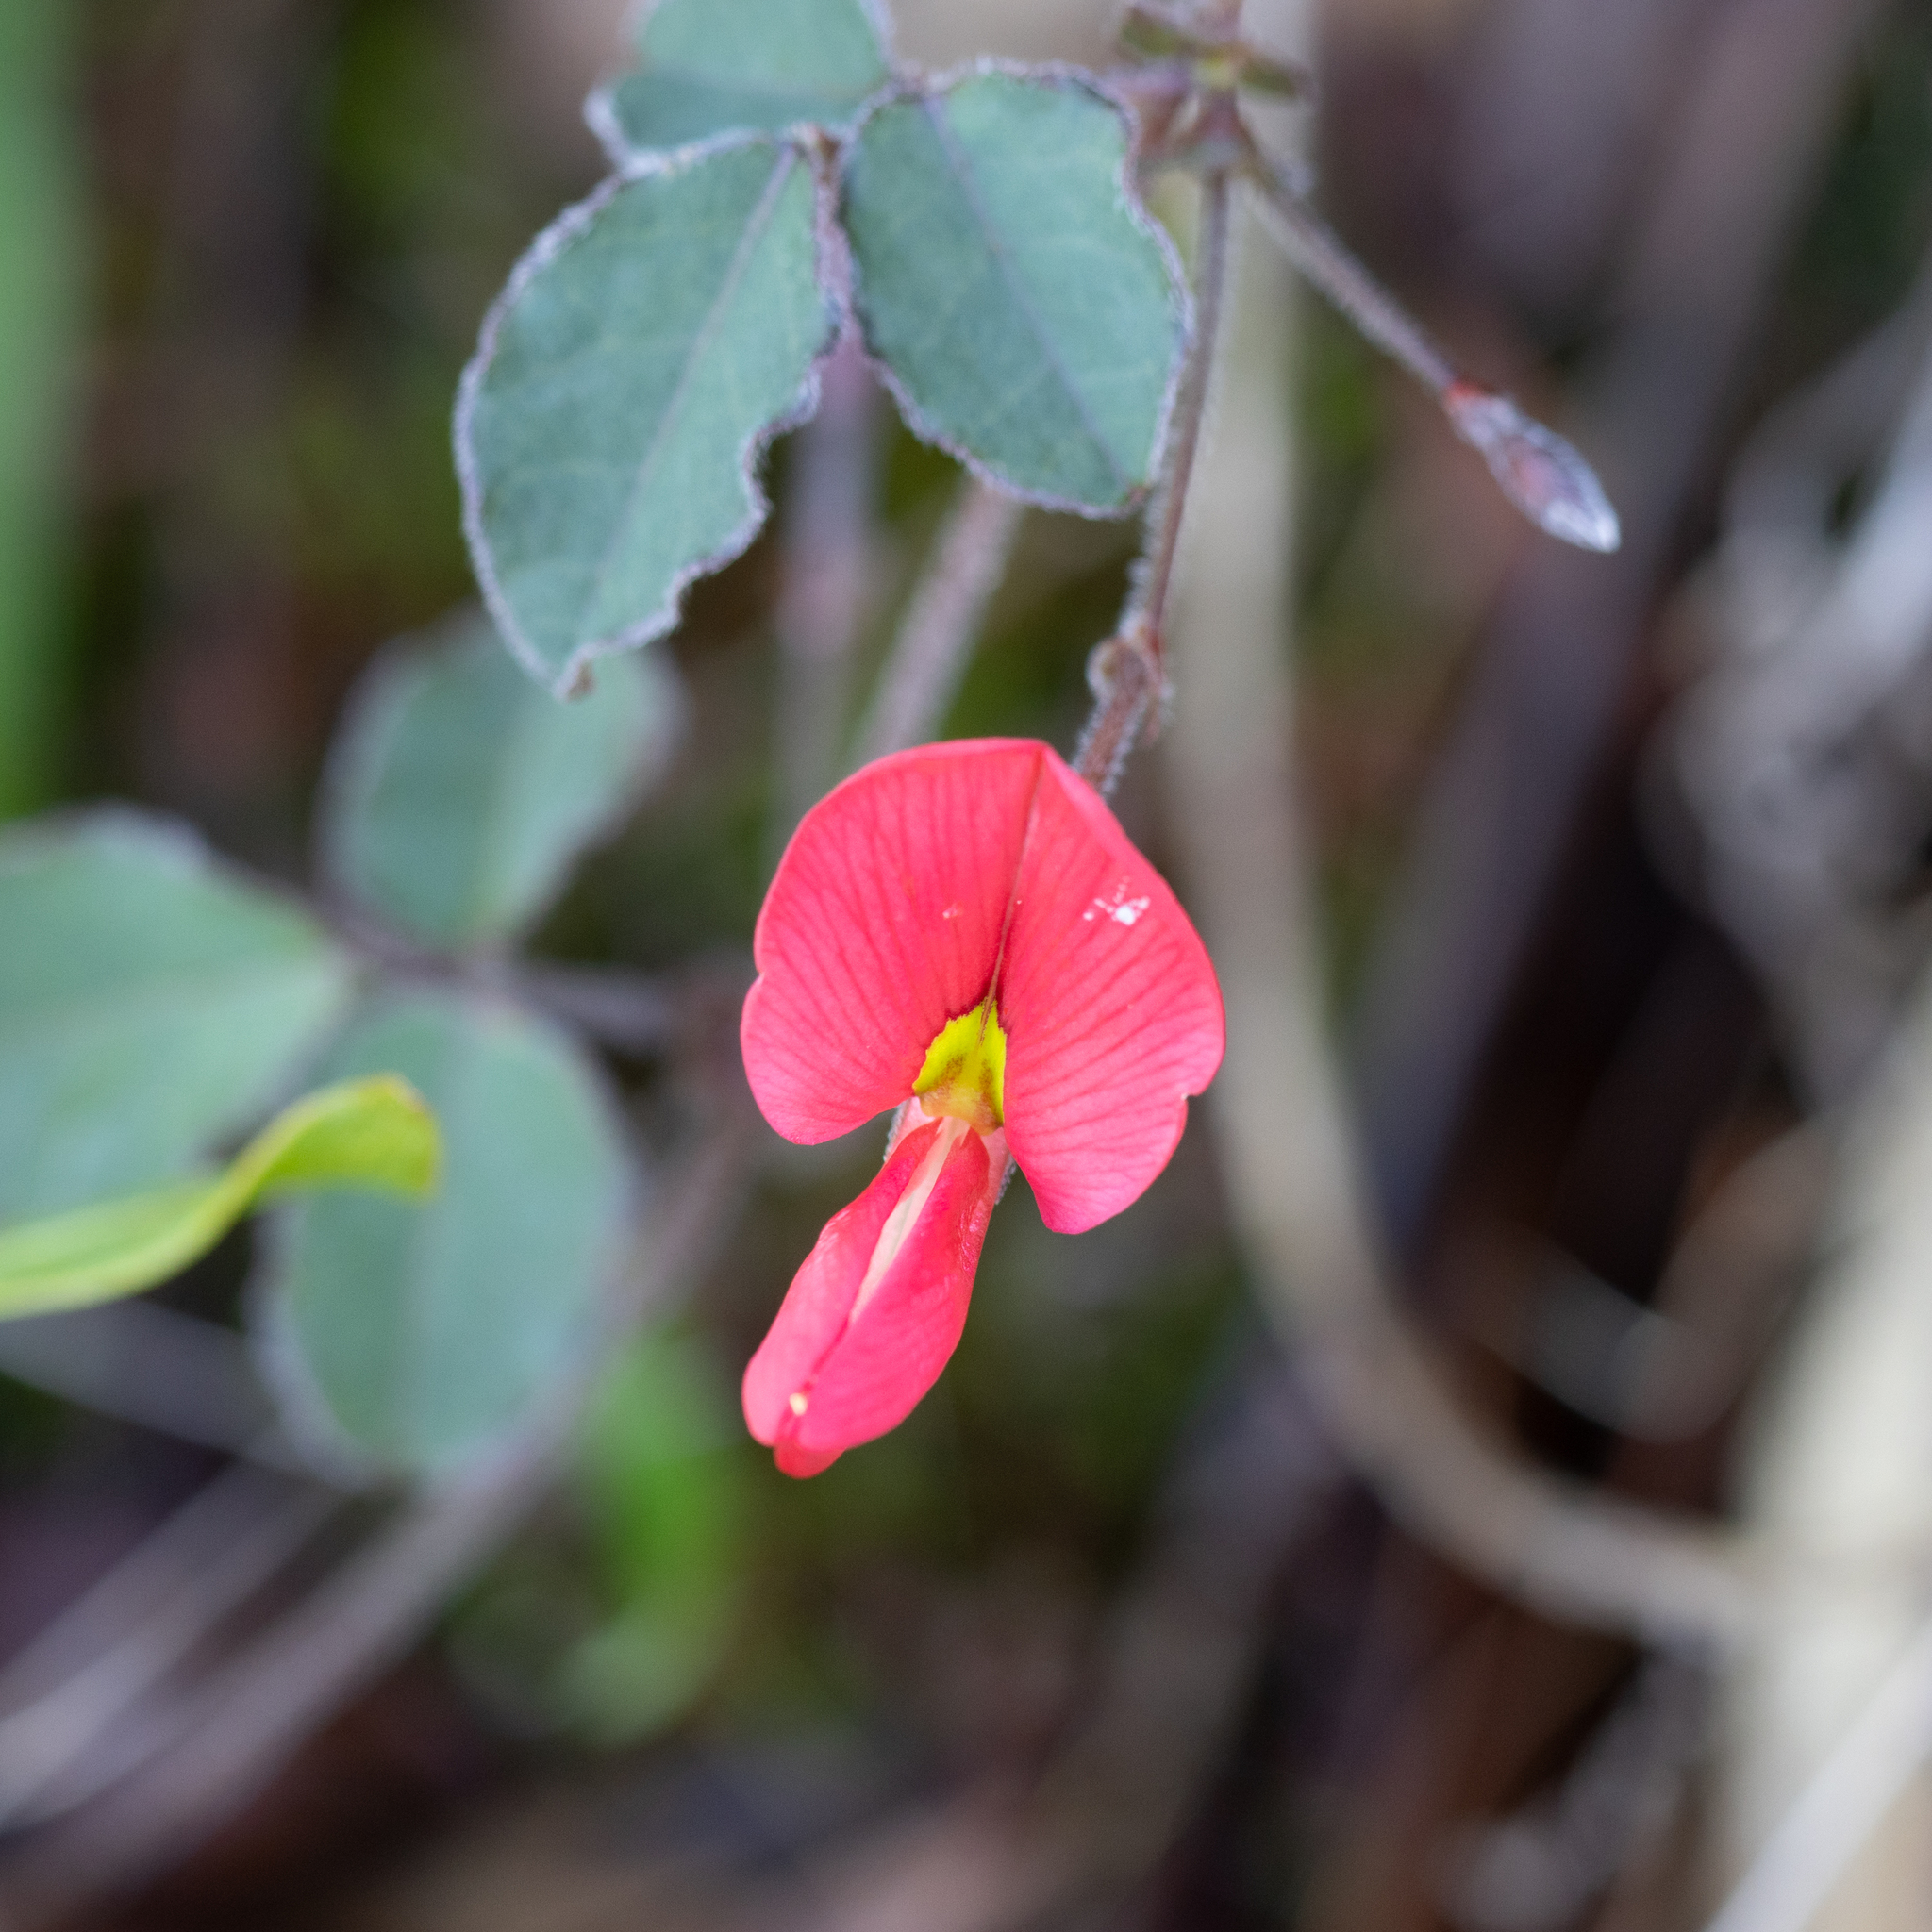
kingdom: Plantae
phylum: Tracheophyta
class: Magnoliopsida
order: Fabales
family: Fabaceae
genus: Kennedia
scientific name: Kennedia prostrata
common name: Running-postman
